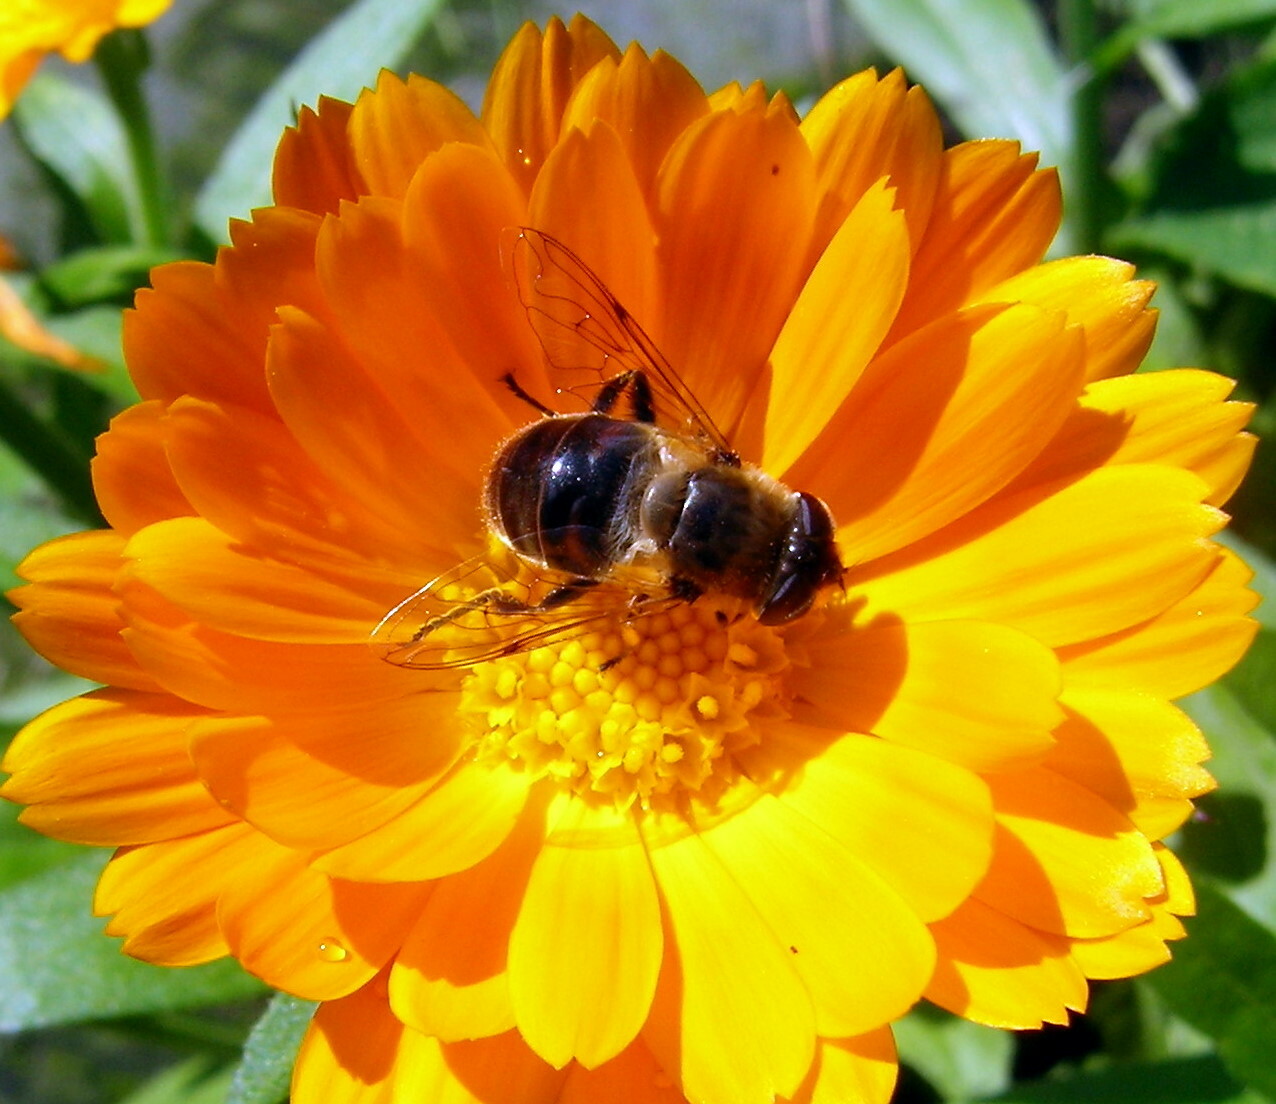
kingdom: Animalia
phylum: Arthropoda
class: Insecta
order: Diptera
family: Syrphidae
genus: Eristalis
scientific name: Eristalis tenax
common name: Drone fly
